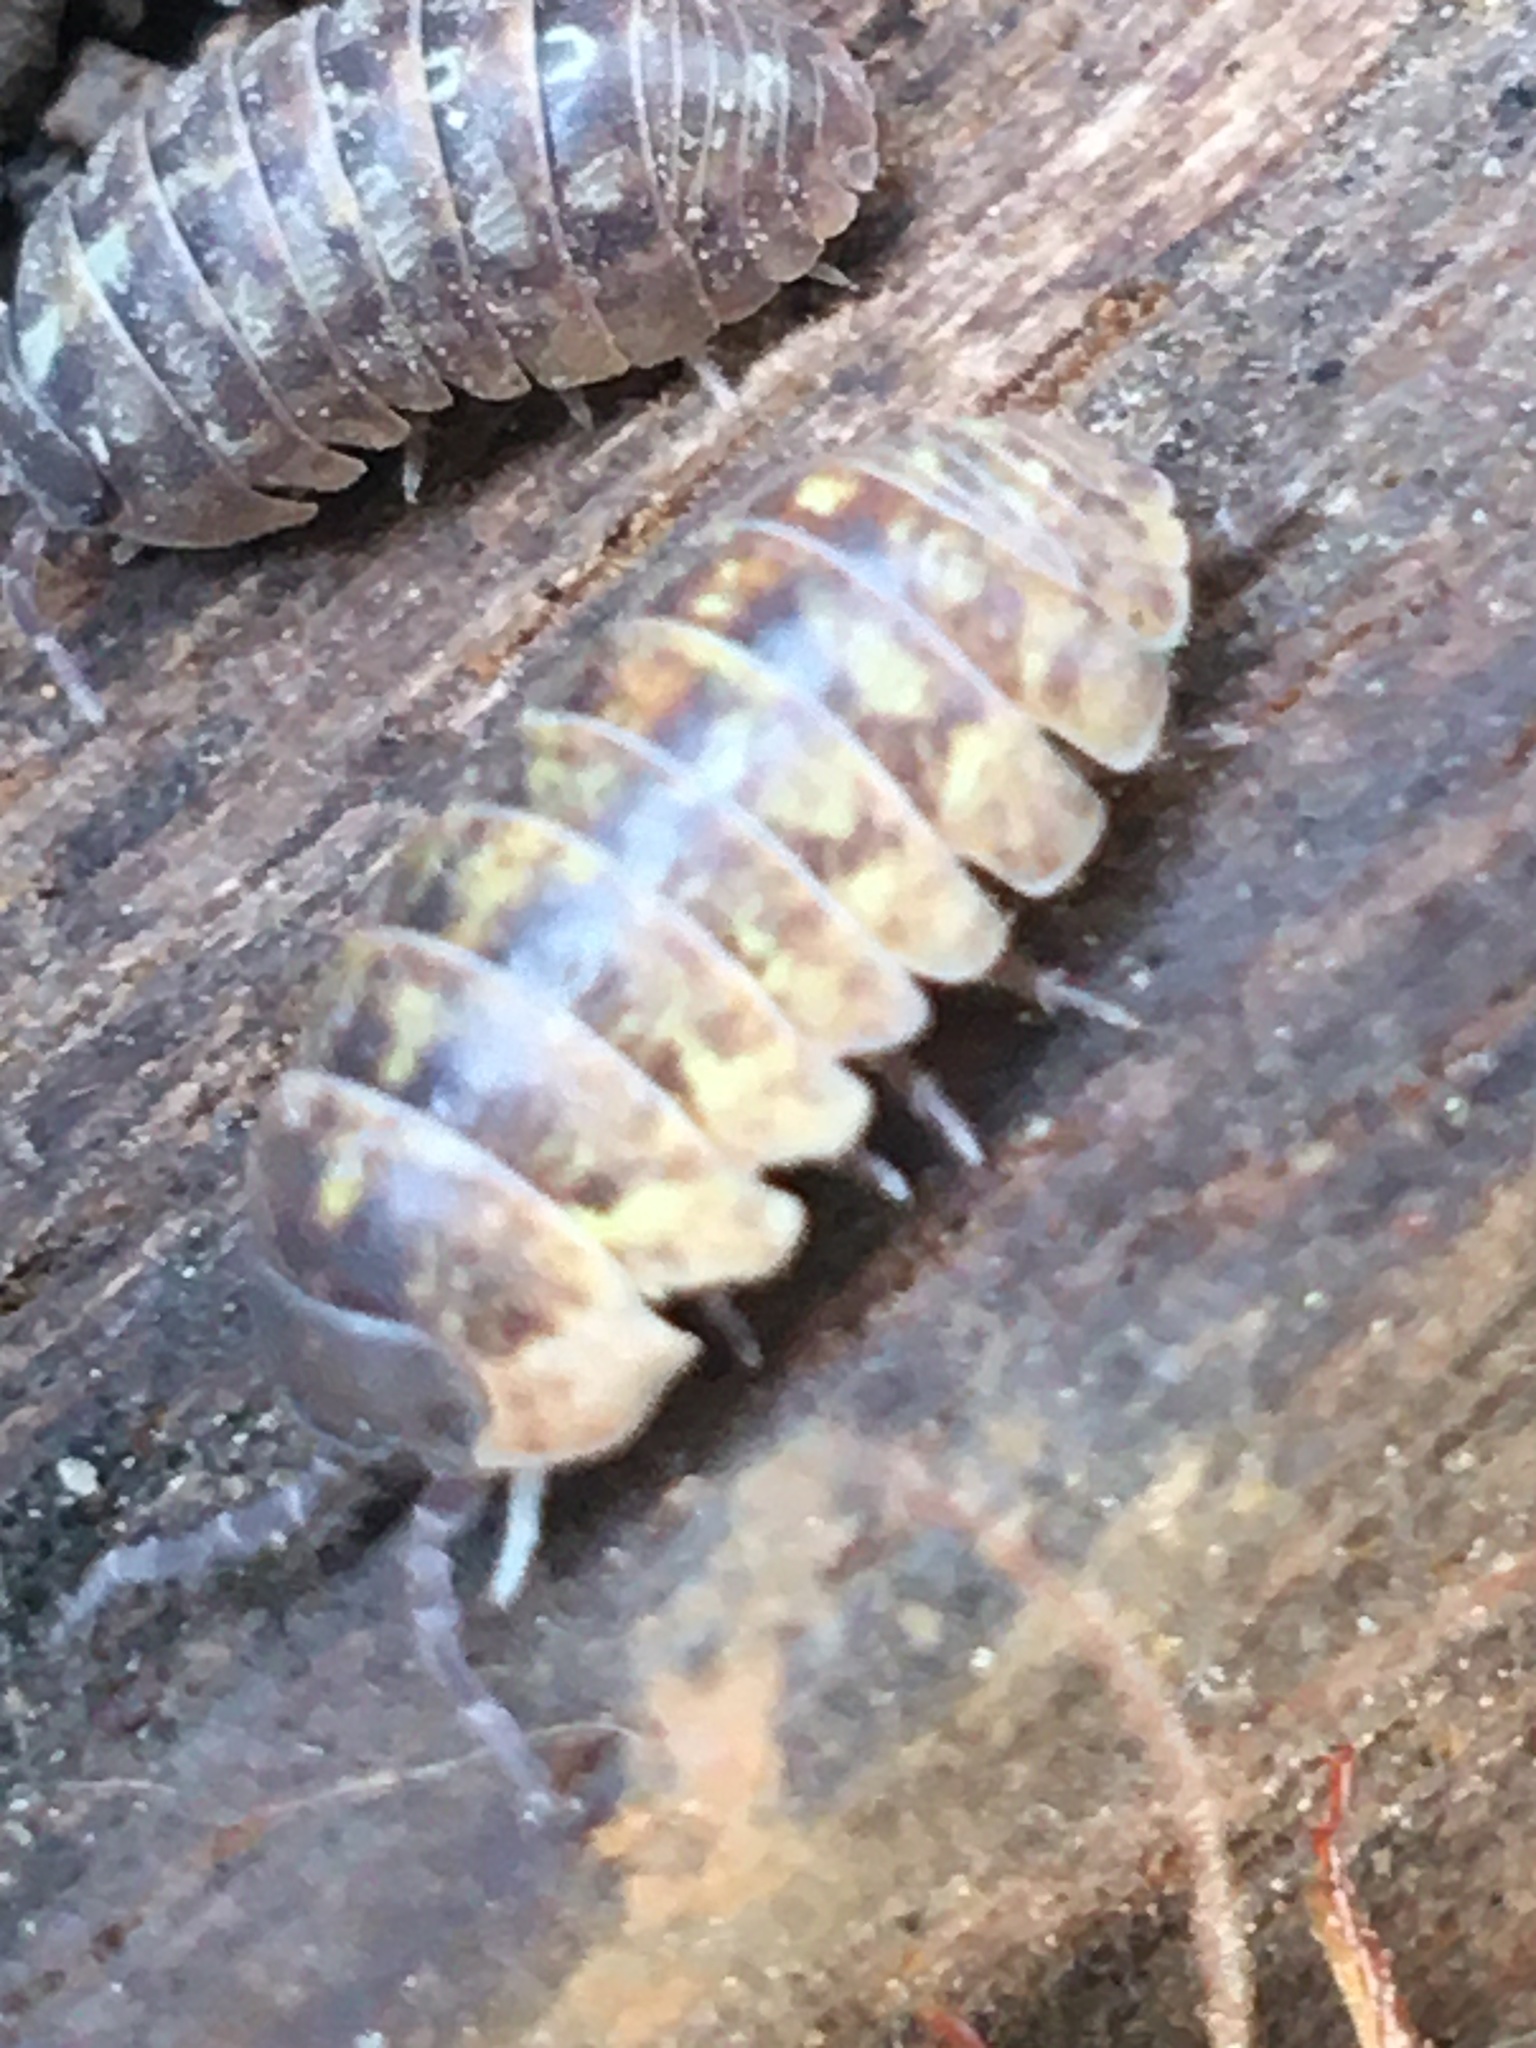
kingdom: Animalia
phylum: Arthropoda
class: Malacostraca
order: Isopoda
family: Armadillidiidae
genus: Armadillidium
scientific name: Armadillidium vulgare
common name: Common pill woodlouse
